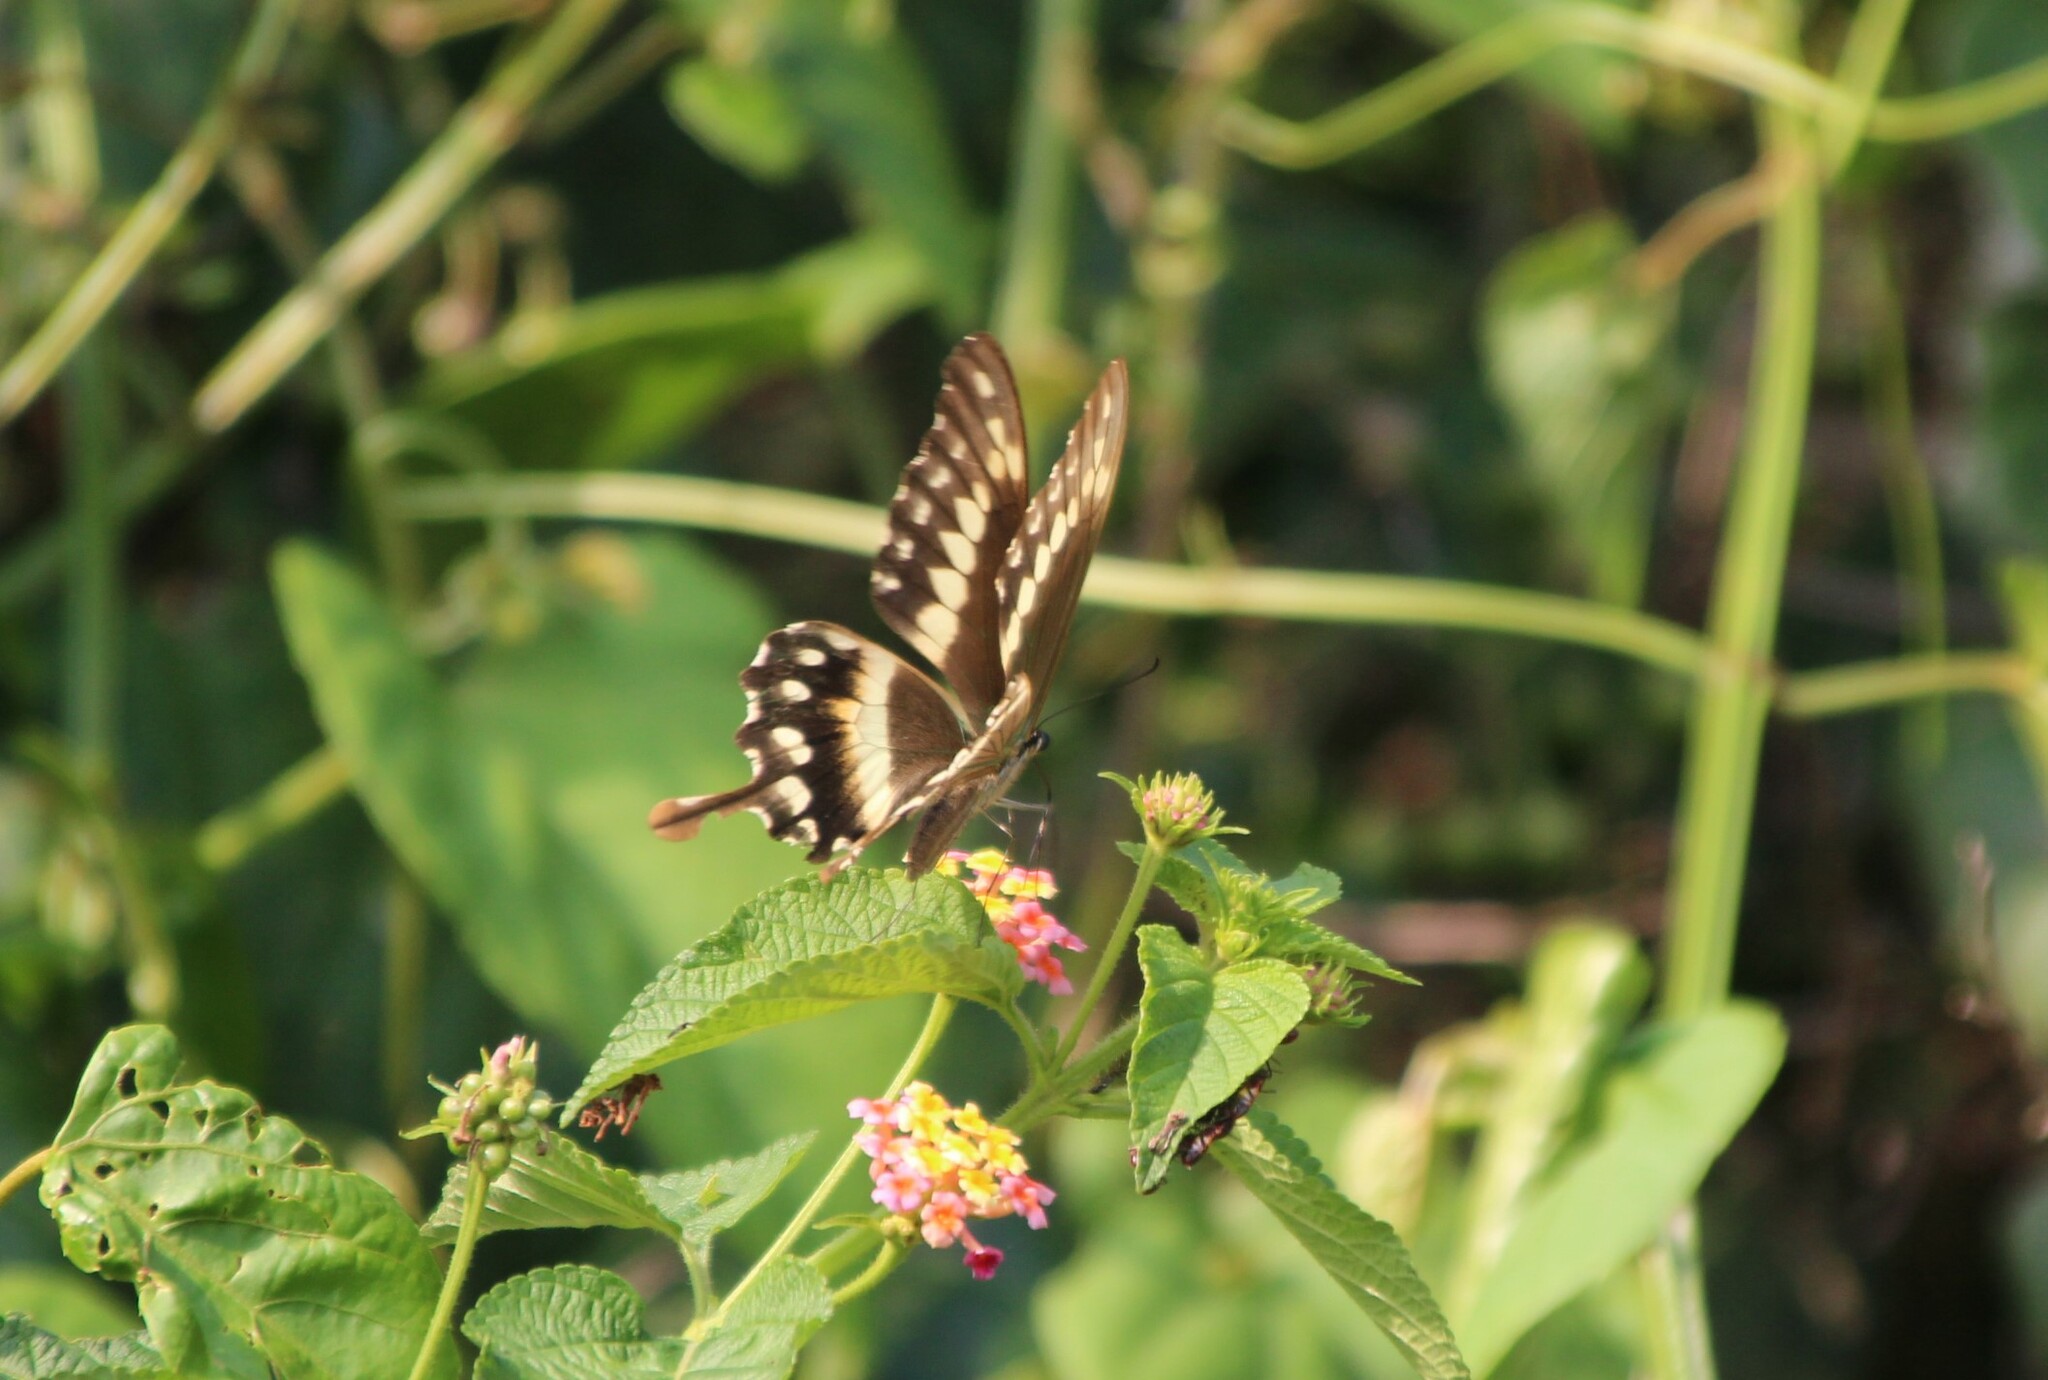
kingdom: Animalia
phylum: Arthropoda
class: Insecta
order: Lepidoptera
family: Papilionidae
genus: Papilio
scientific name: Papilio phorcas
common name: Apple-green swallowtail
